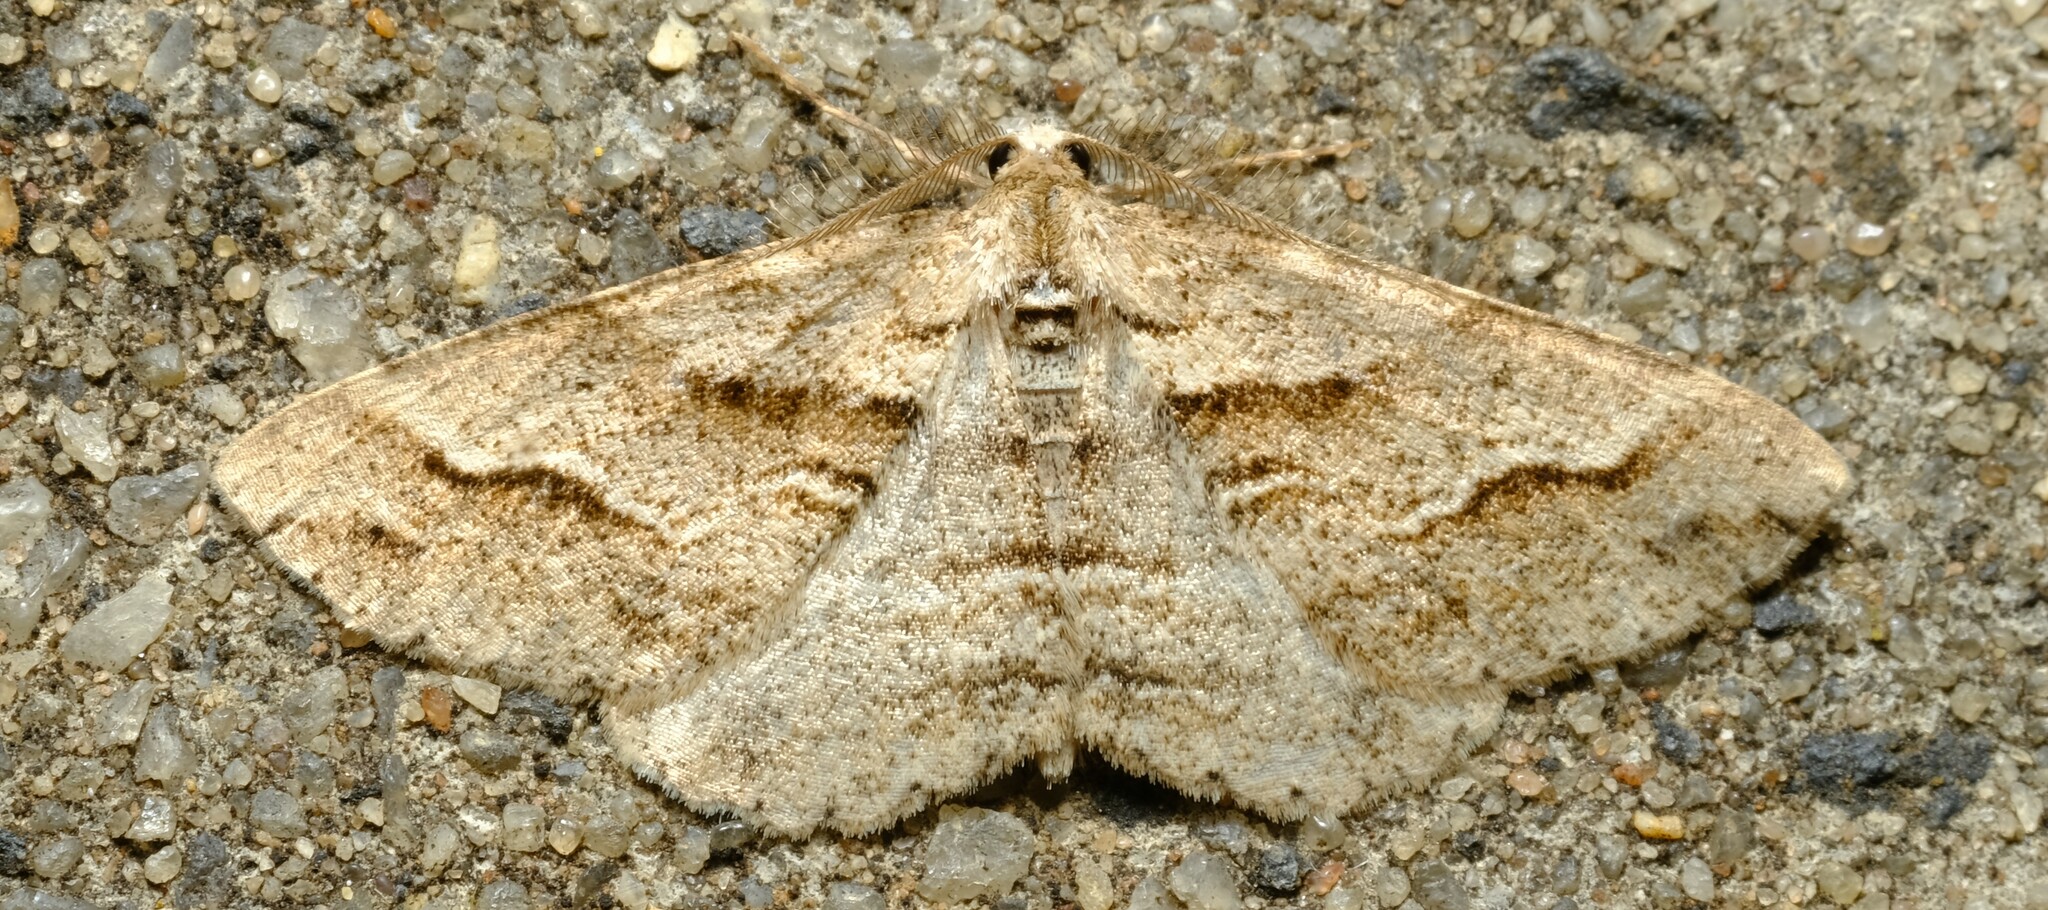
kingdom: Animalia
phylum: Arthropoda
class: Insecta
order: Lepidoptera
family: Geometridae
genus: Syneora
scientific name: Syneora fractata
